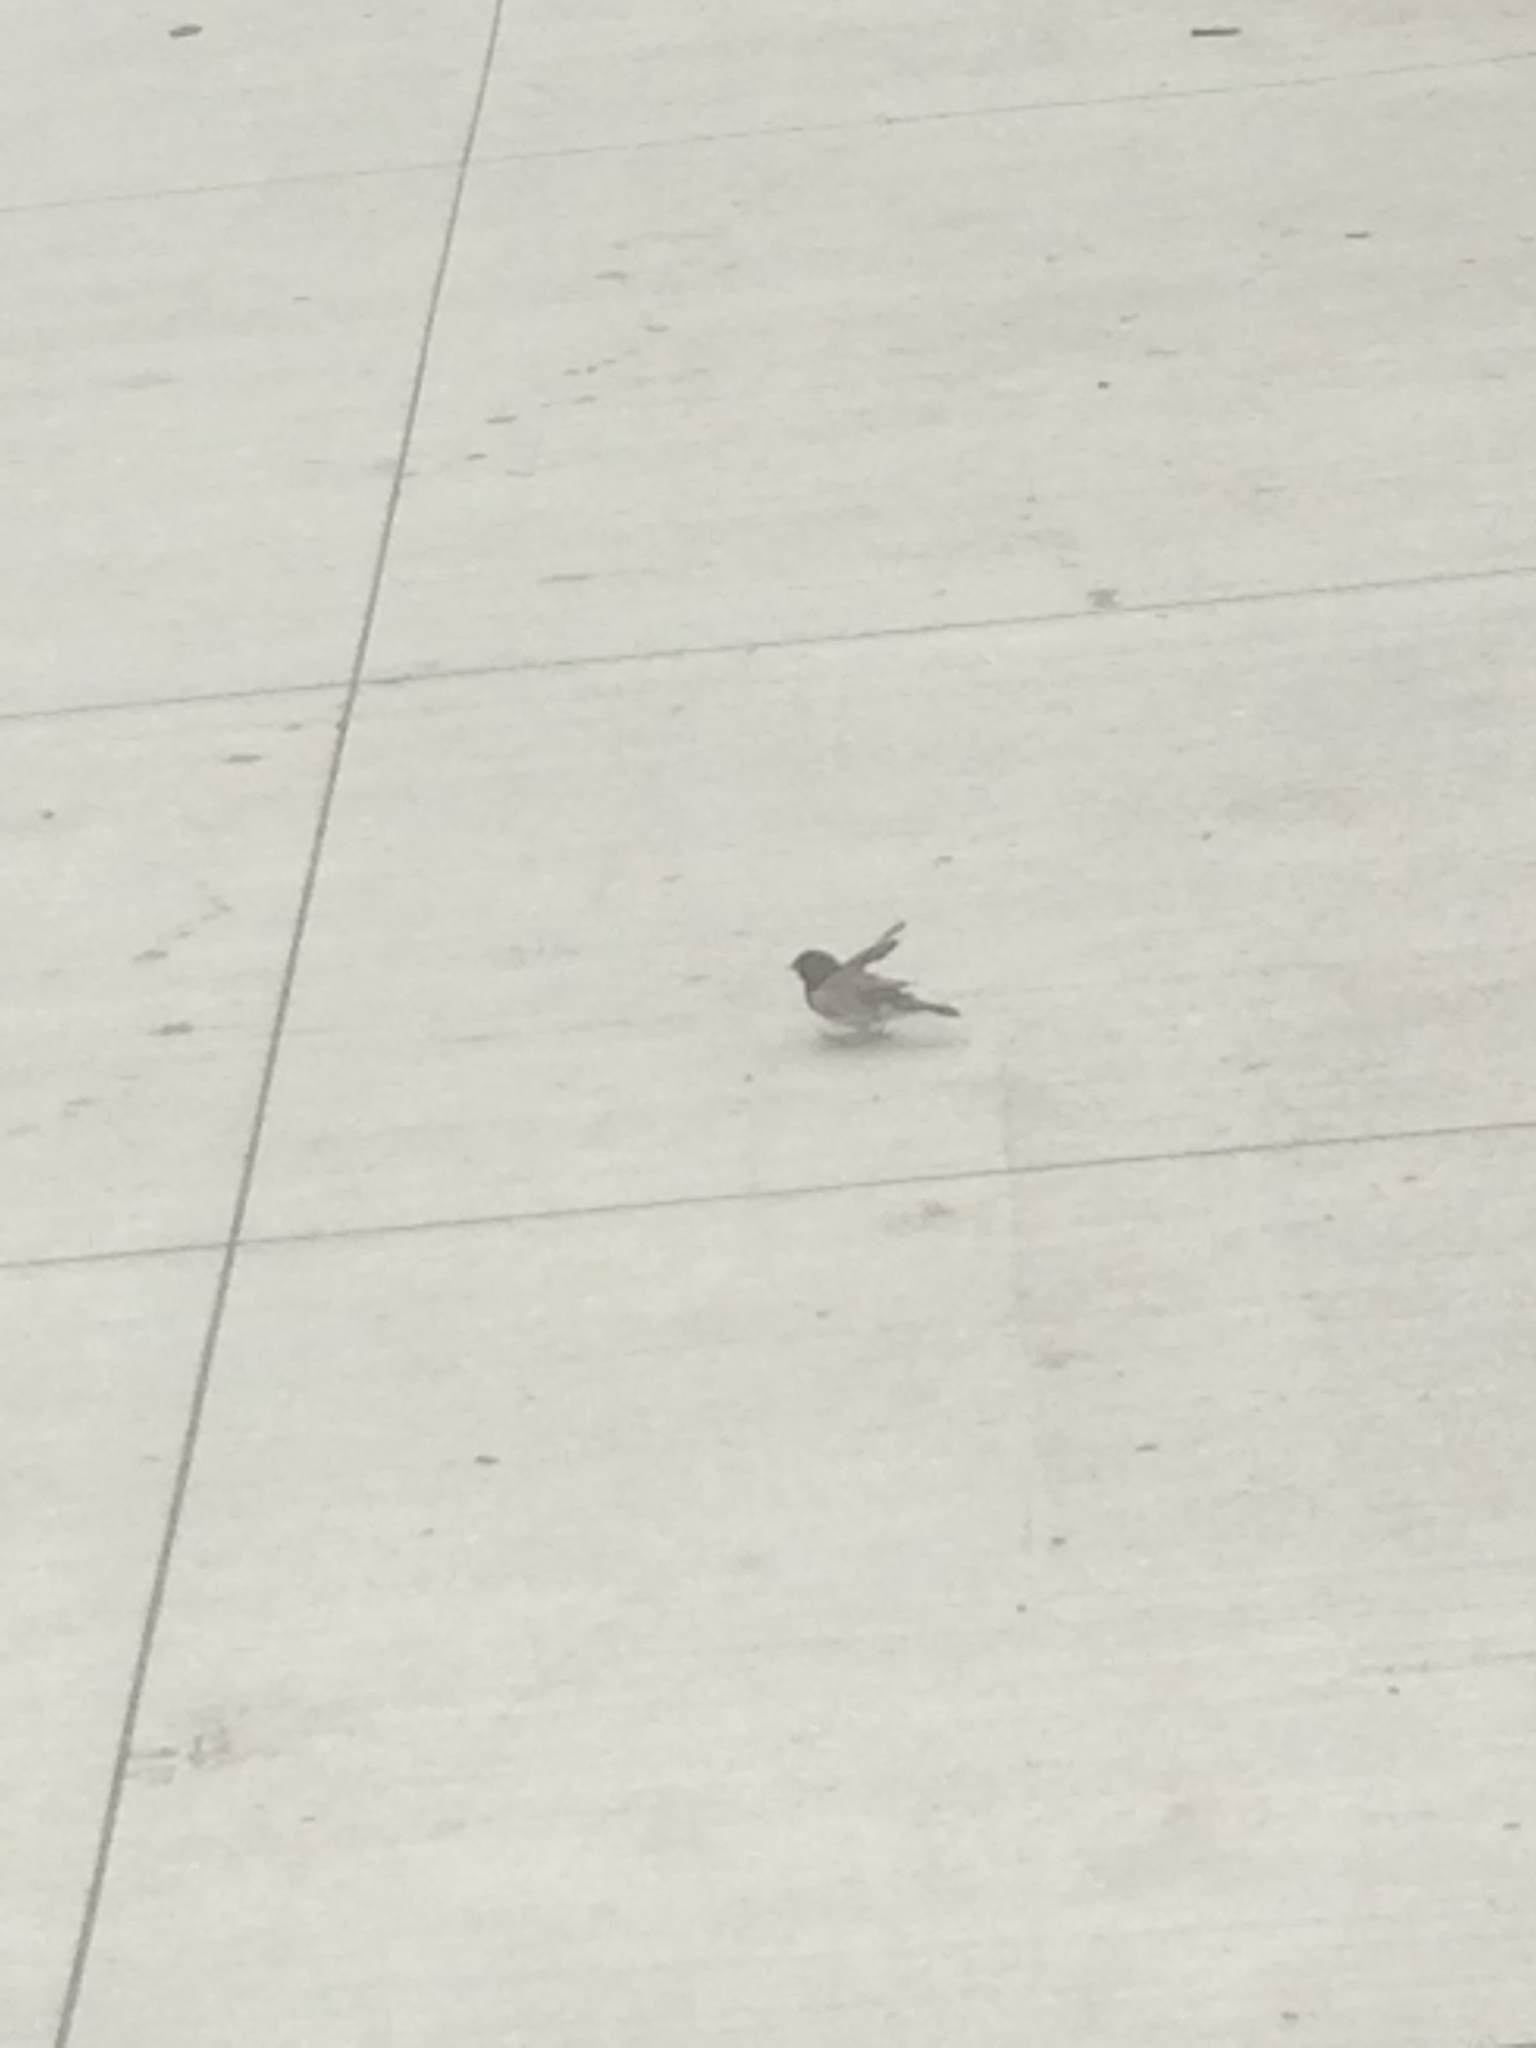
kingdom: Animalia
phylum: Chordata
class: Aves
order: Passeriformes
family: Passerellidae
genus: Junco
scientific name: Junco hyemalis
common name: Dark-eyed junco
